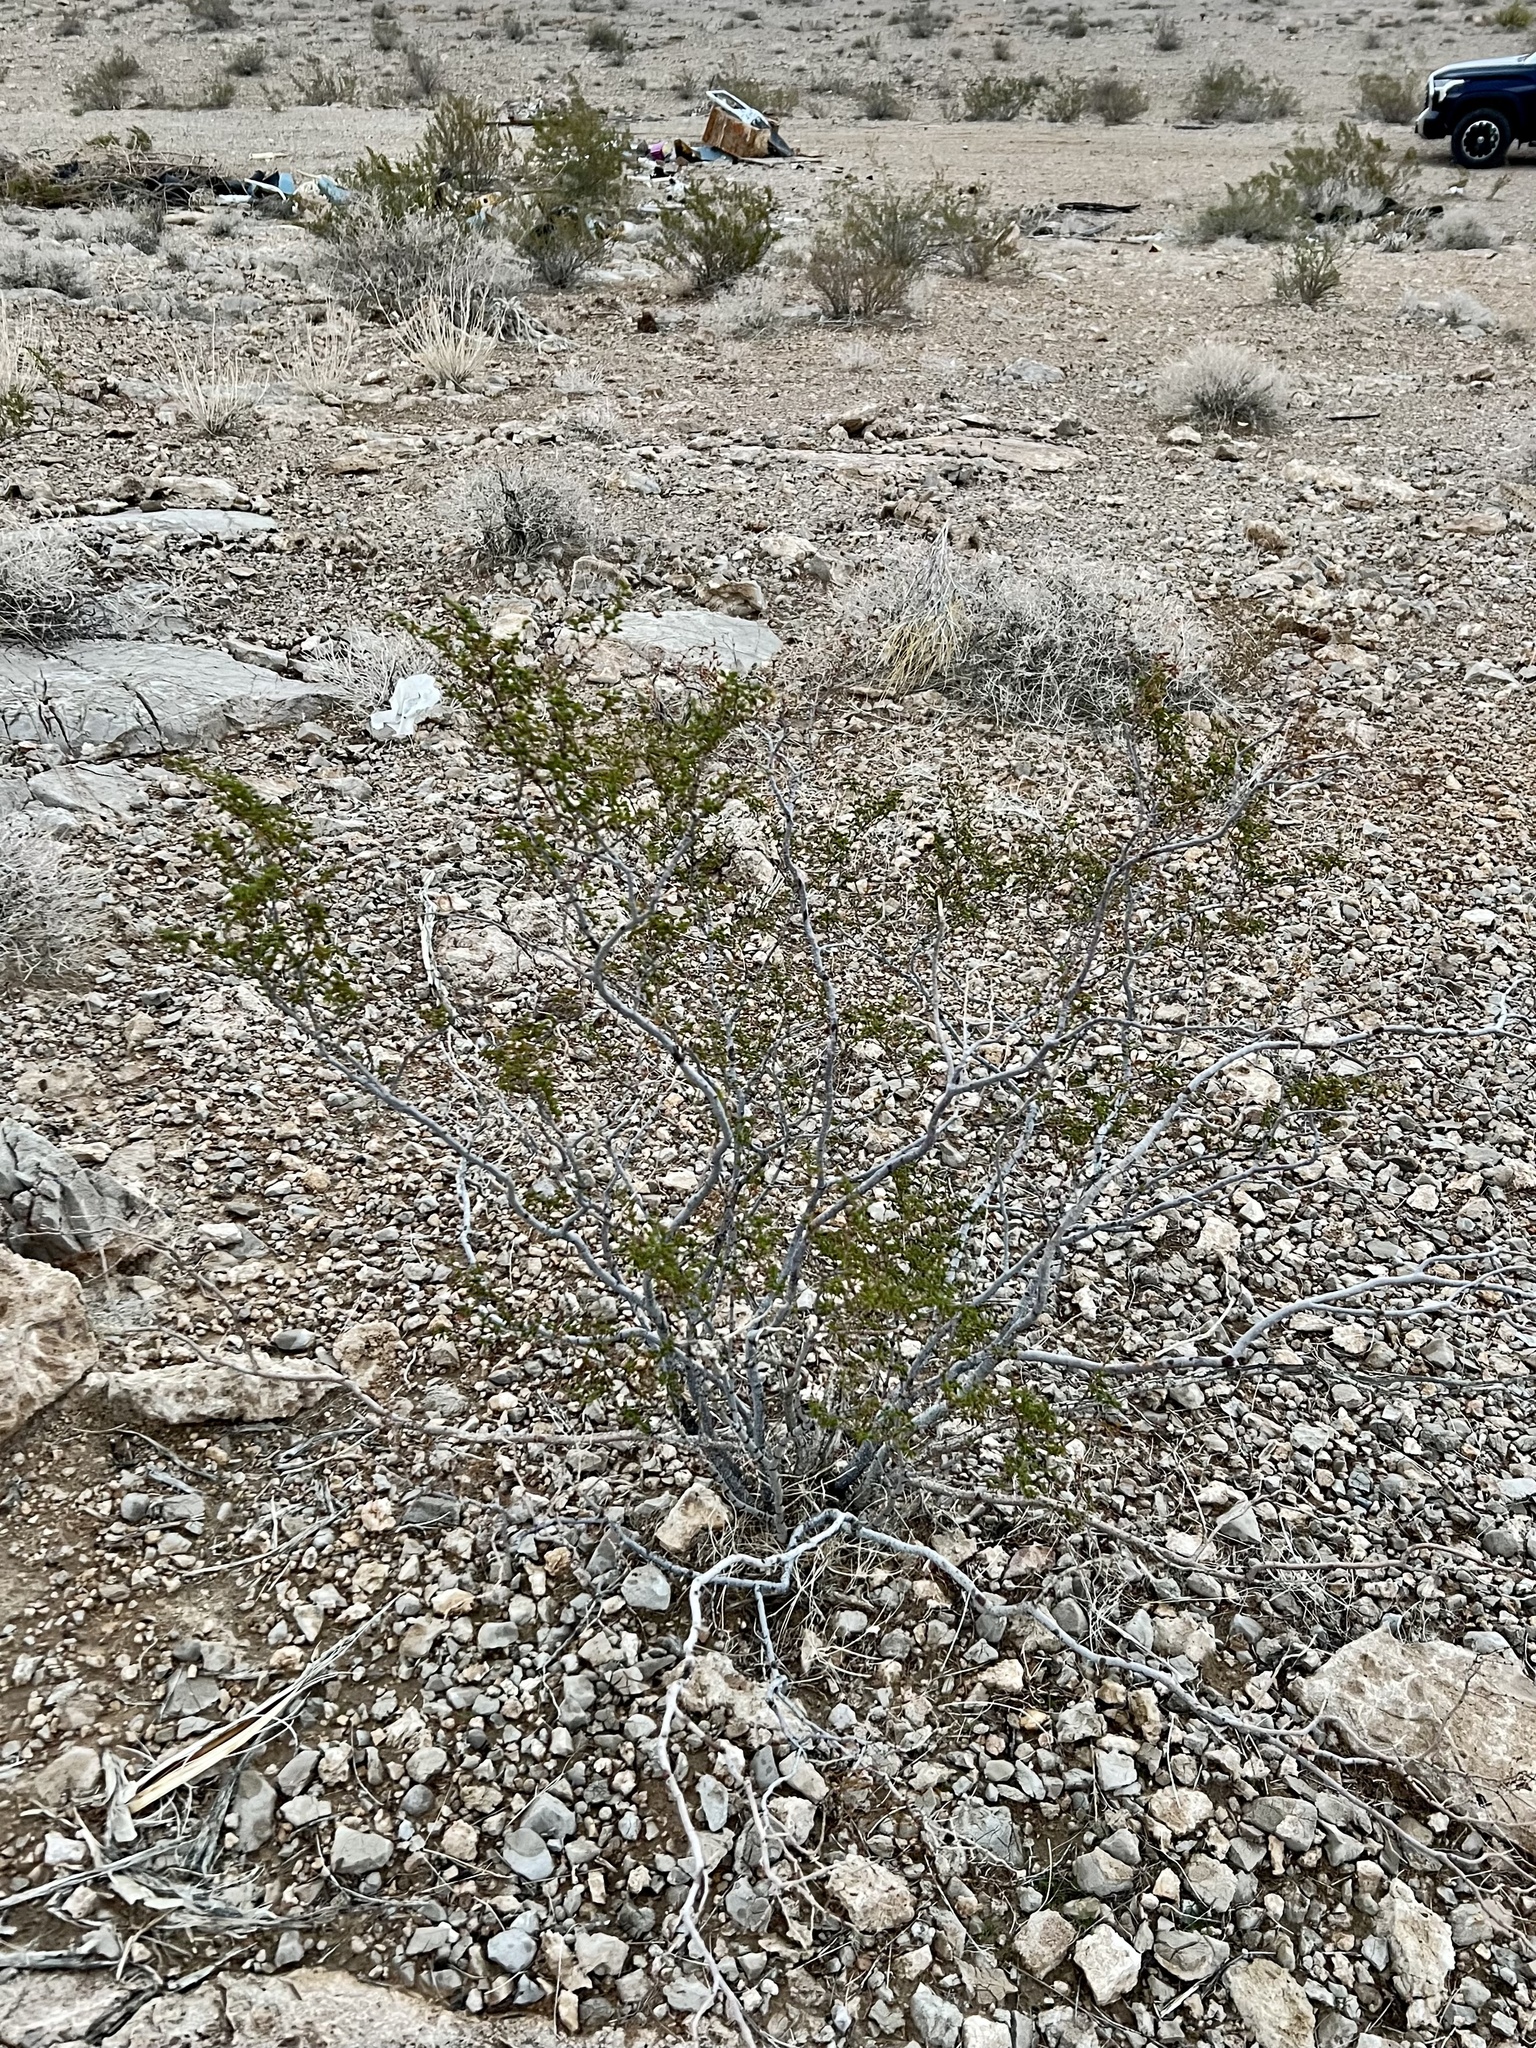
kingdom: Plantae
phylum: Tracheophyta
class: Magnoliopsida
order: Zygophyllales
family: Zygophyllaceae
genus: Larrea
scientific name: Larrea tridentata
